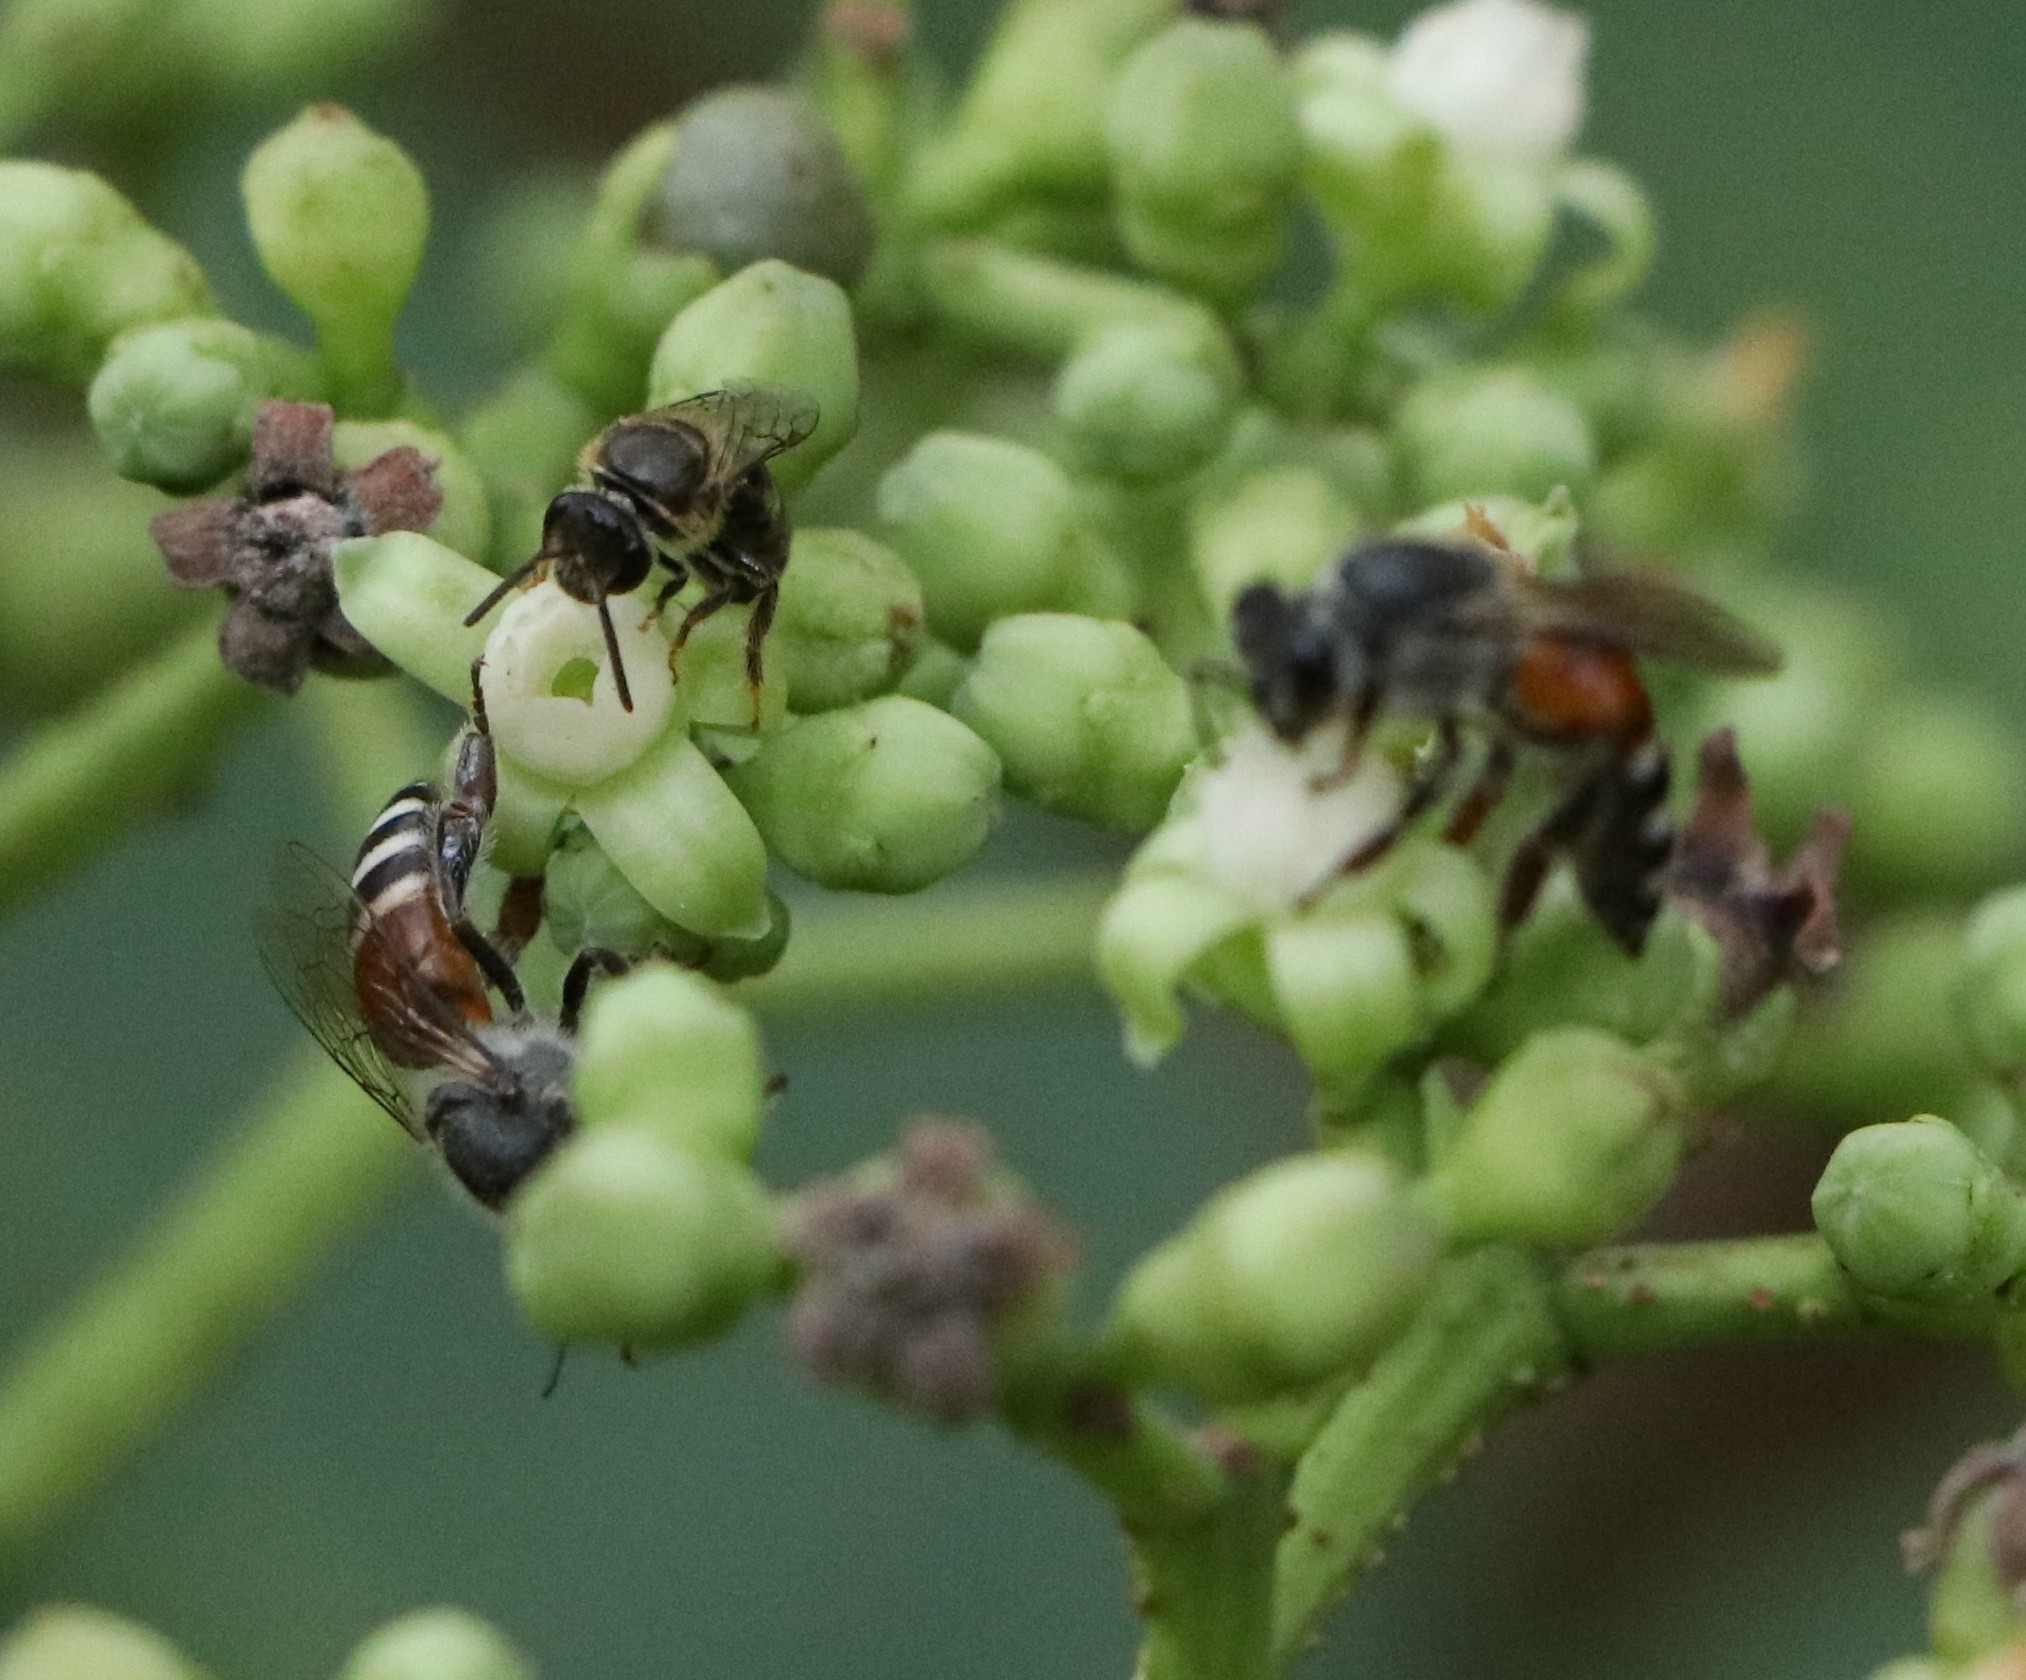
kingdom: Animalia
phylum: Arthropoda
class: Insecta
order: Hymenoptera
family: Apidae
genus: Apis
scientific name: Apis florea
